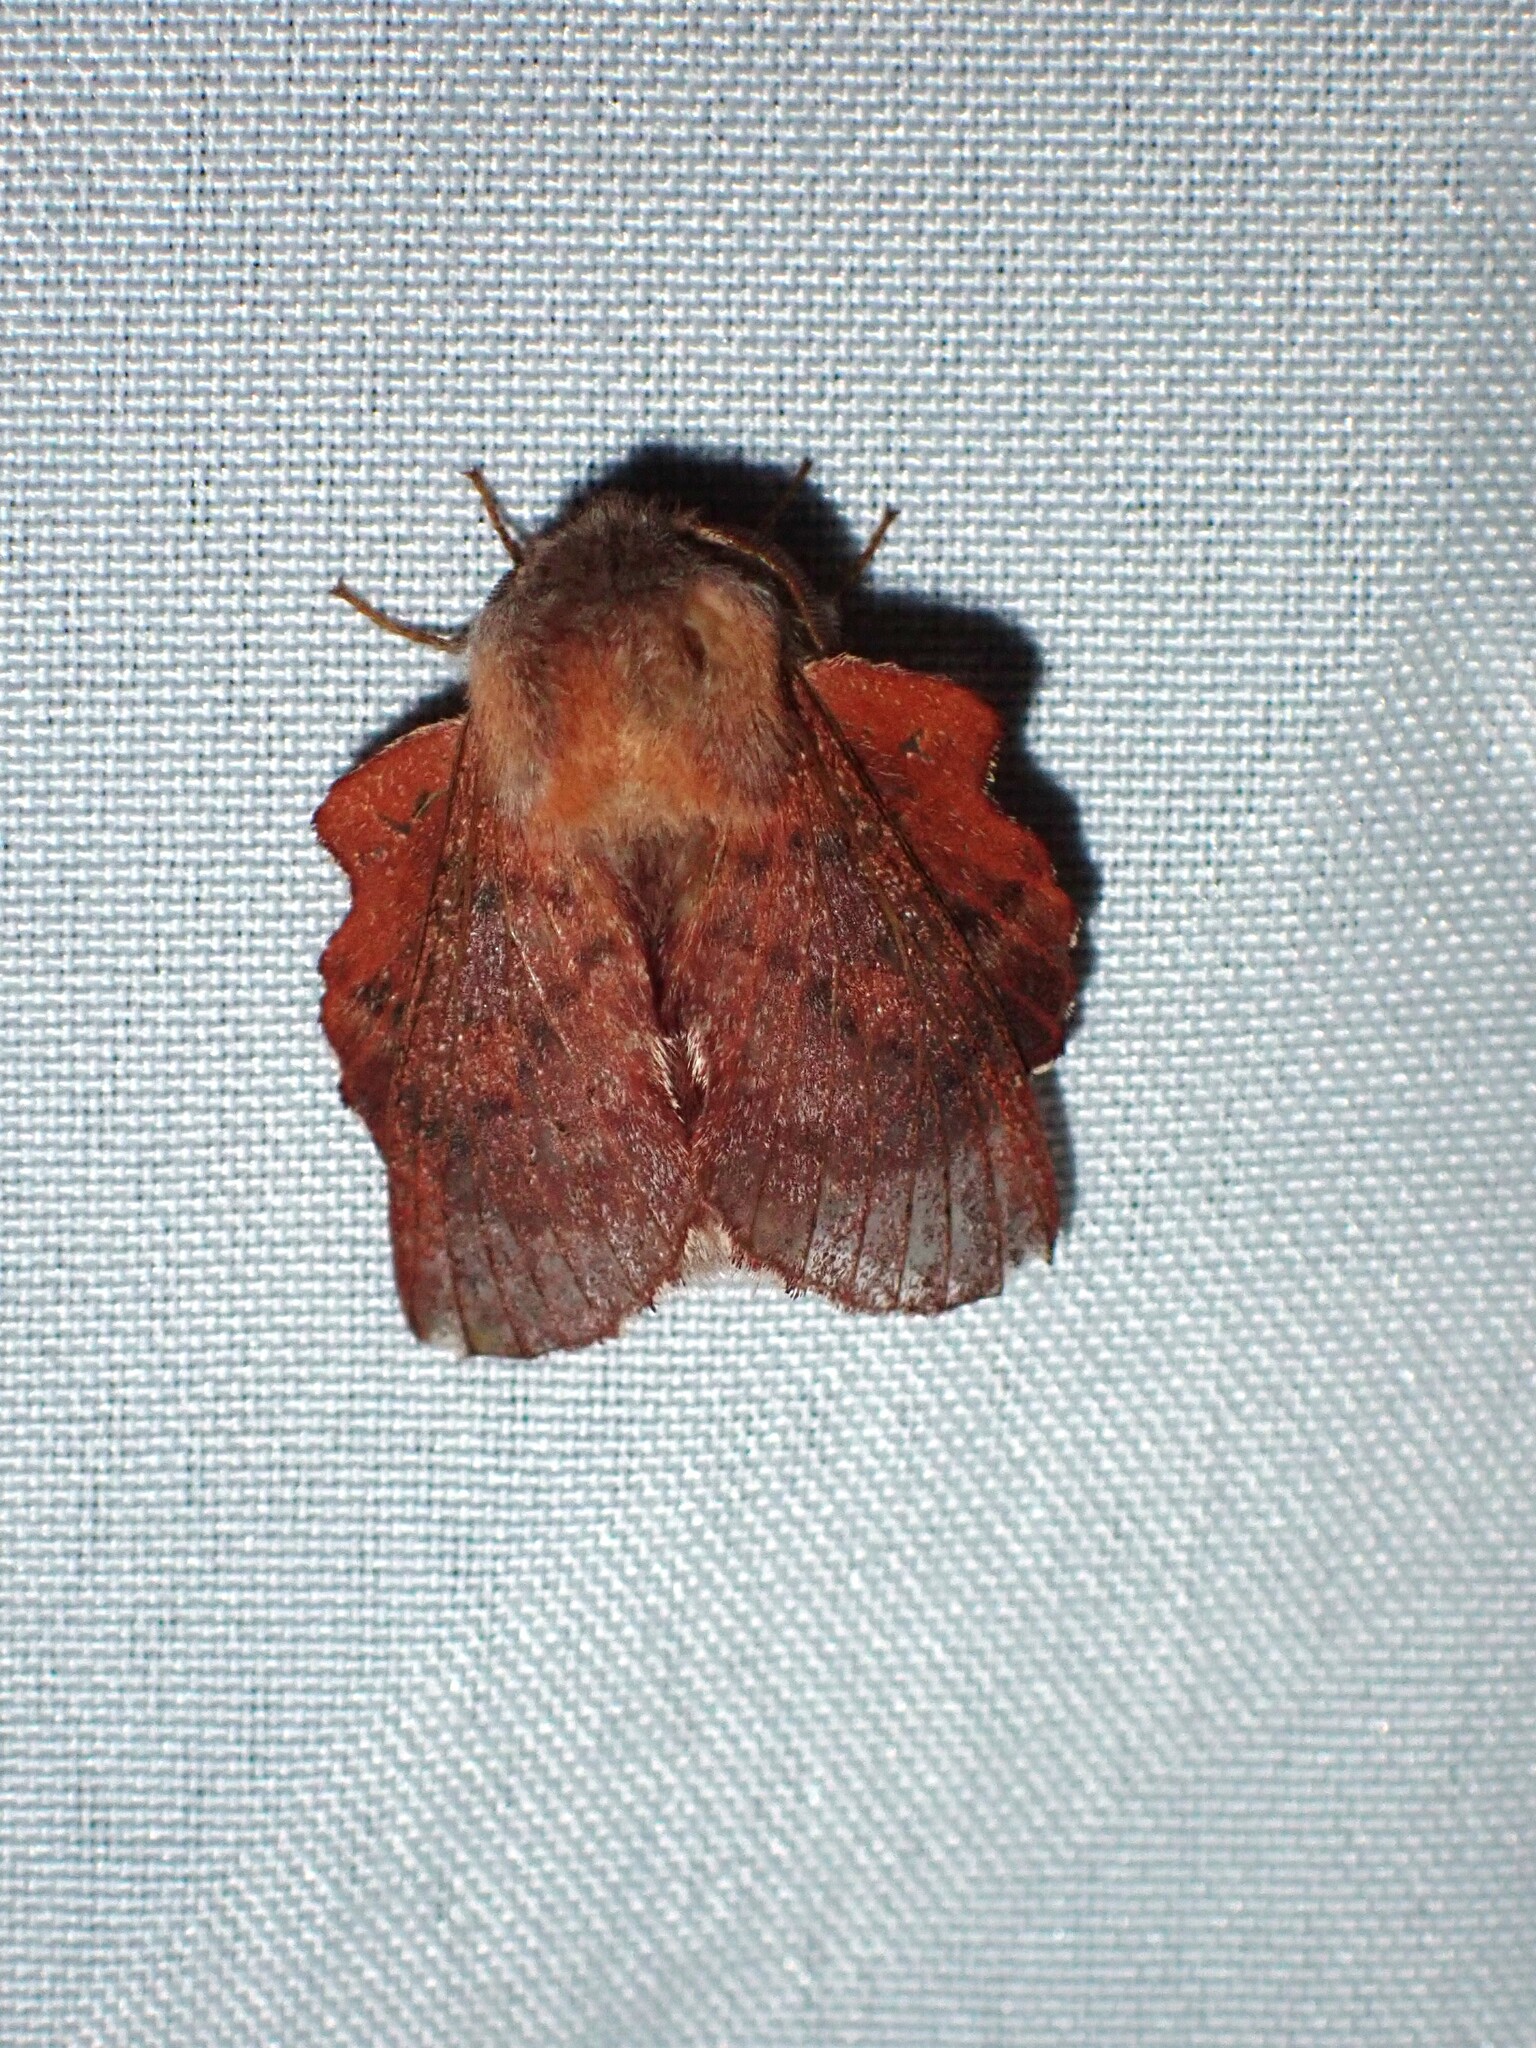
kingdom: Animalia
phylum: Arthropoda
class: Insecta
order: Lepidoptera
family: Lasiocampidae
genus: Phyllodesma
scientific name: Phyllodesma americana
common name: American lappet moth
